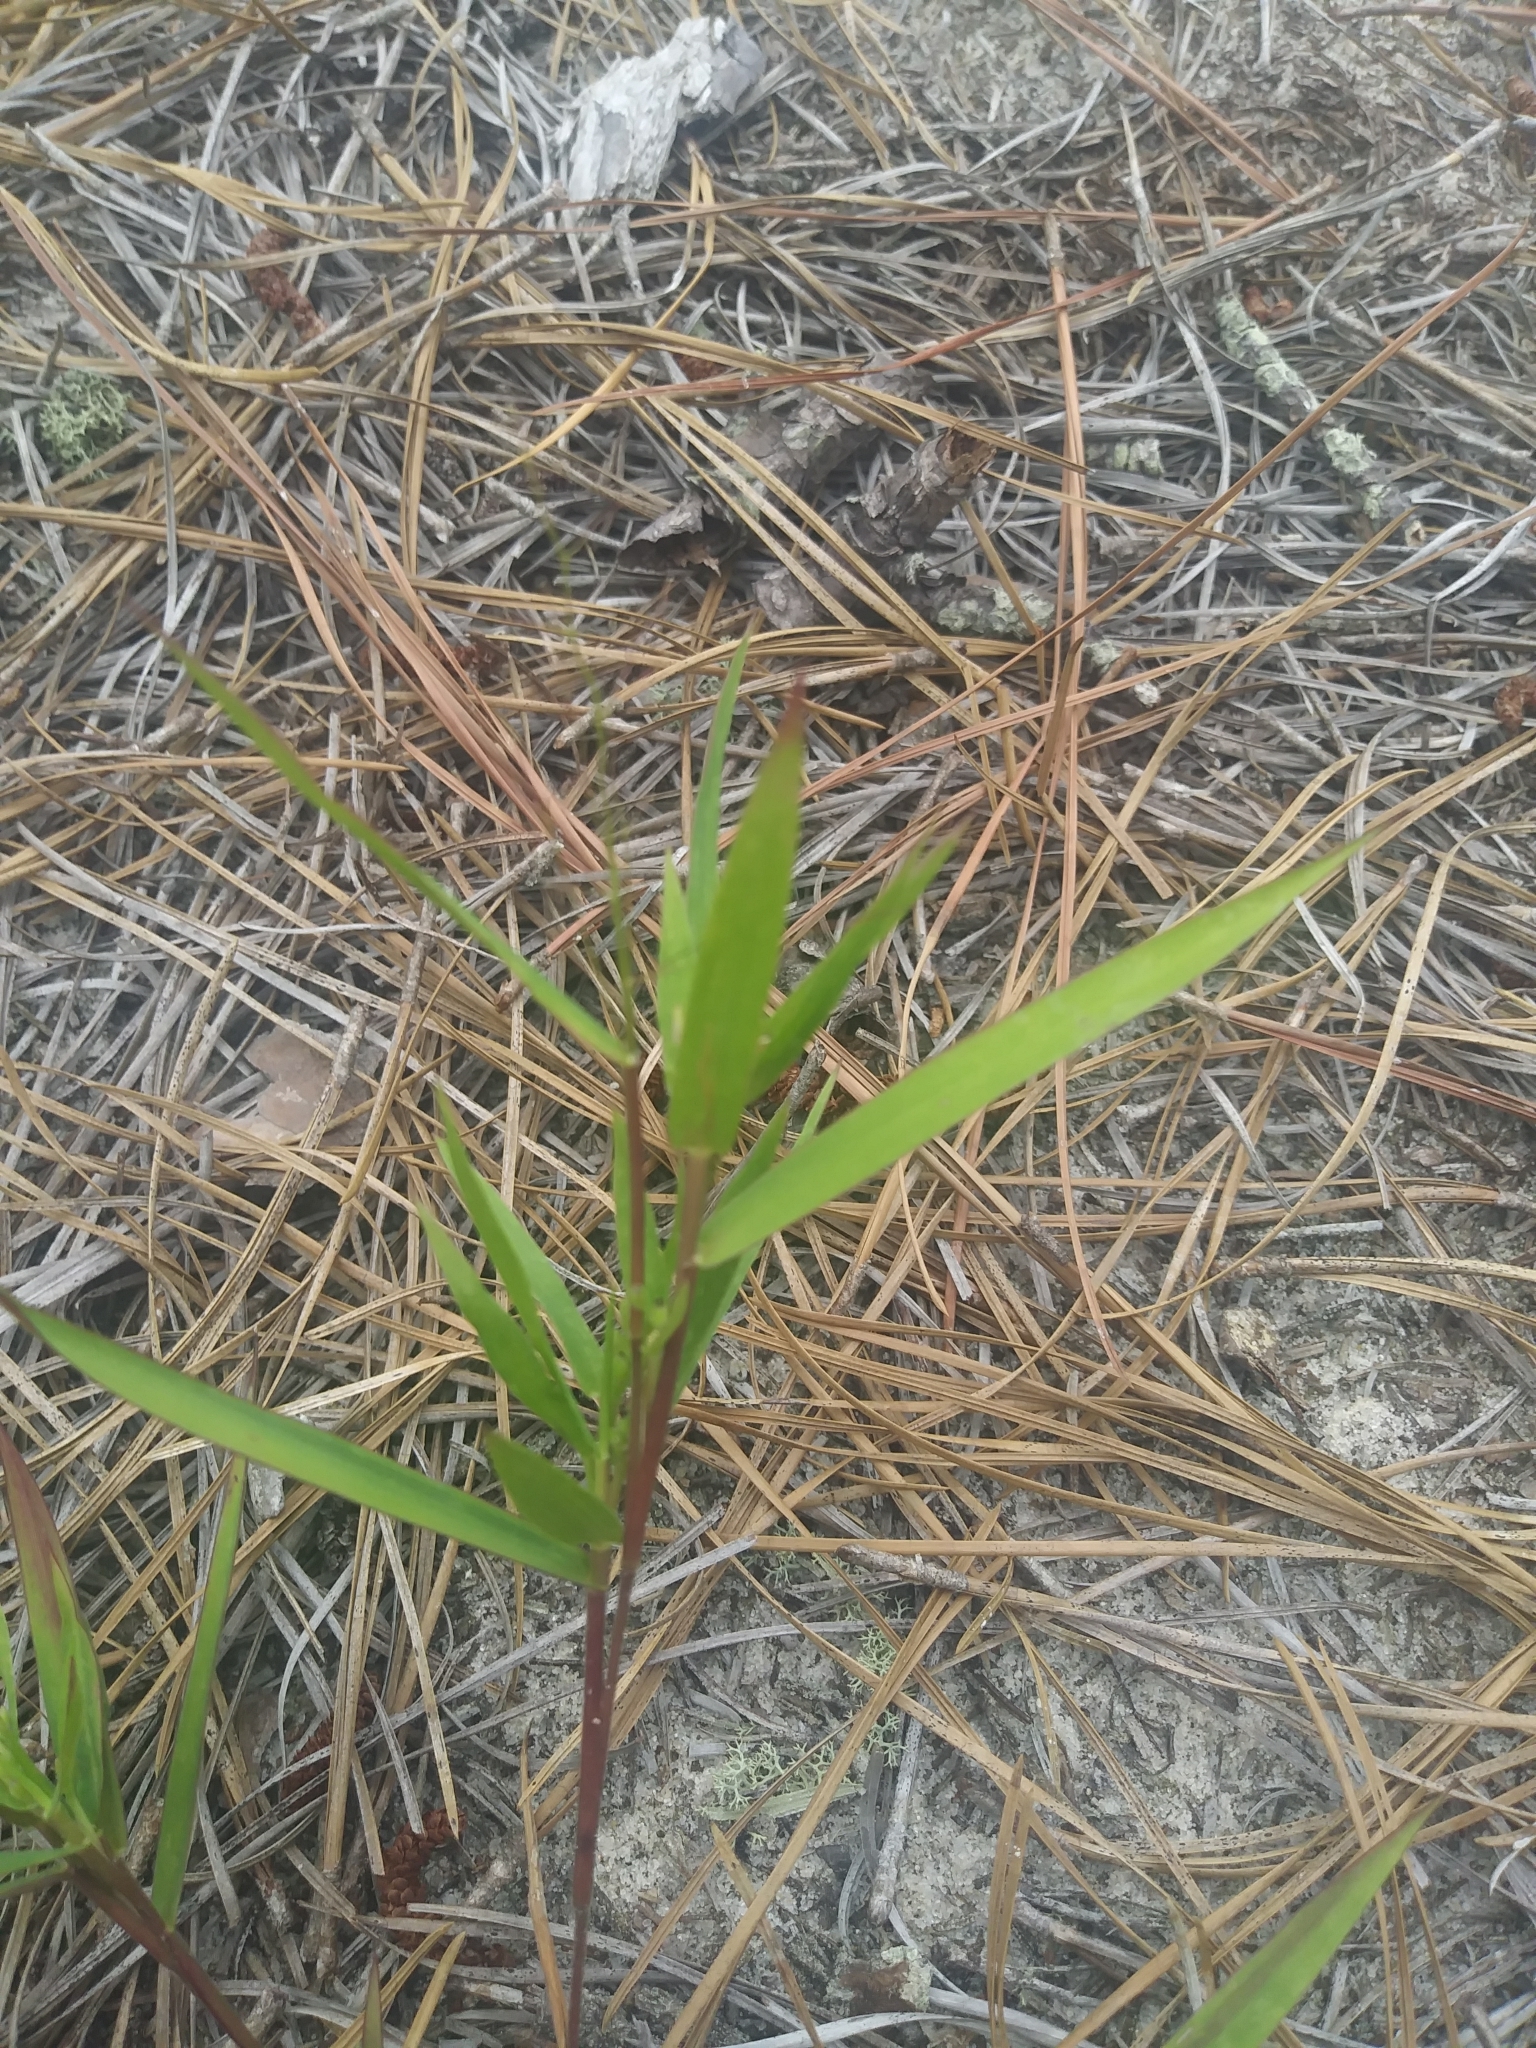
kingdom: Plantae
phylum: Tracheophyta
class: Liliopsida
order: Poales
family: Poaceae
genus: Dichanthelium
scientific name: Dichanthelium oligosanthes
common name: Few-anther obscuregrass
